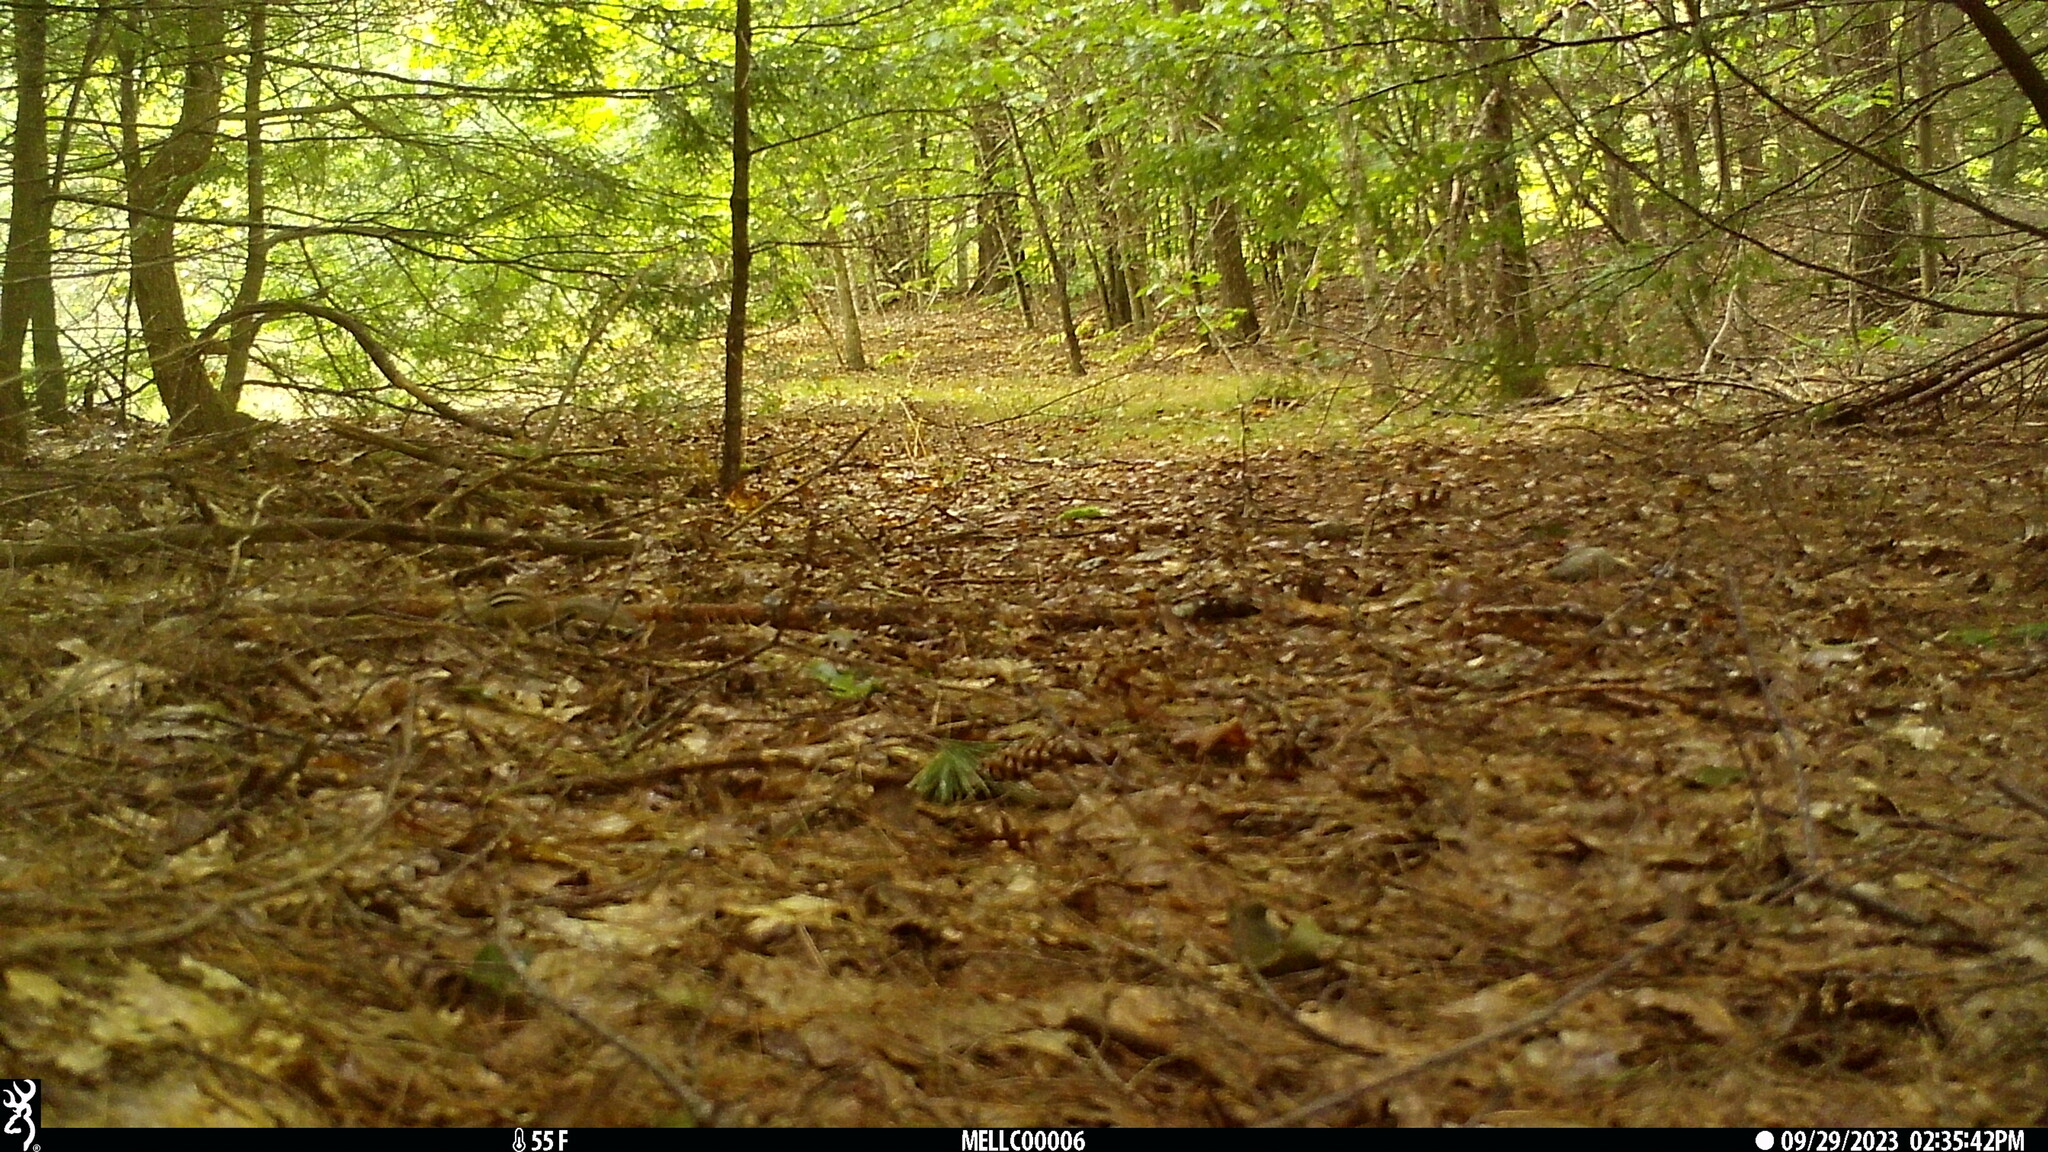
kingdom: Animalia
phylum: Chordata
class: Mammalia
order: Rodentia
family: Sciuridae
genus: Tamias
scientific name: Tamias striatus
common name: Eastern chipmunk
